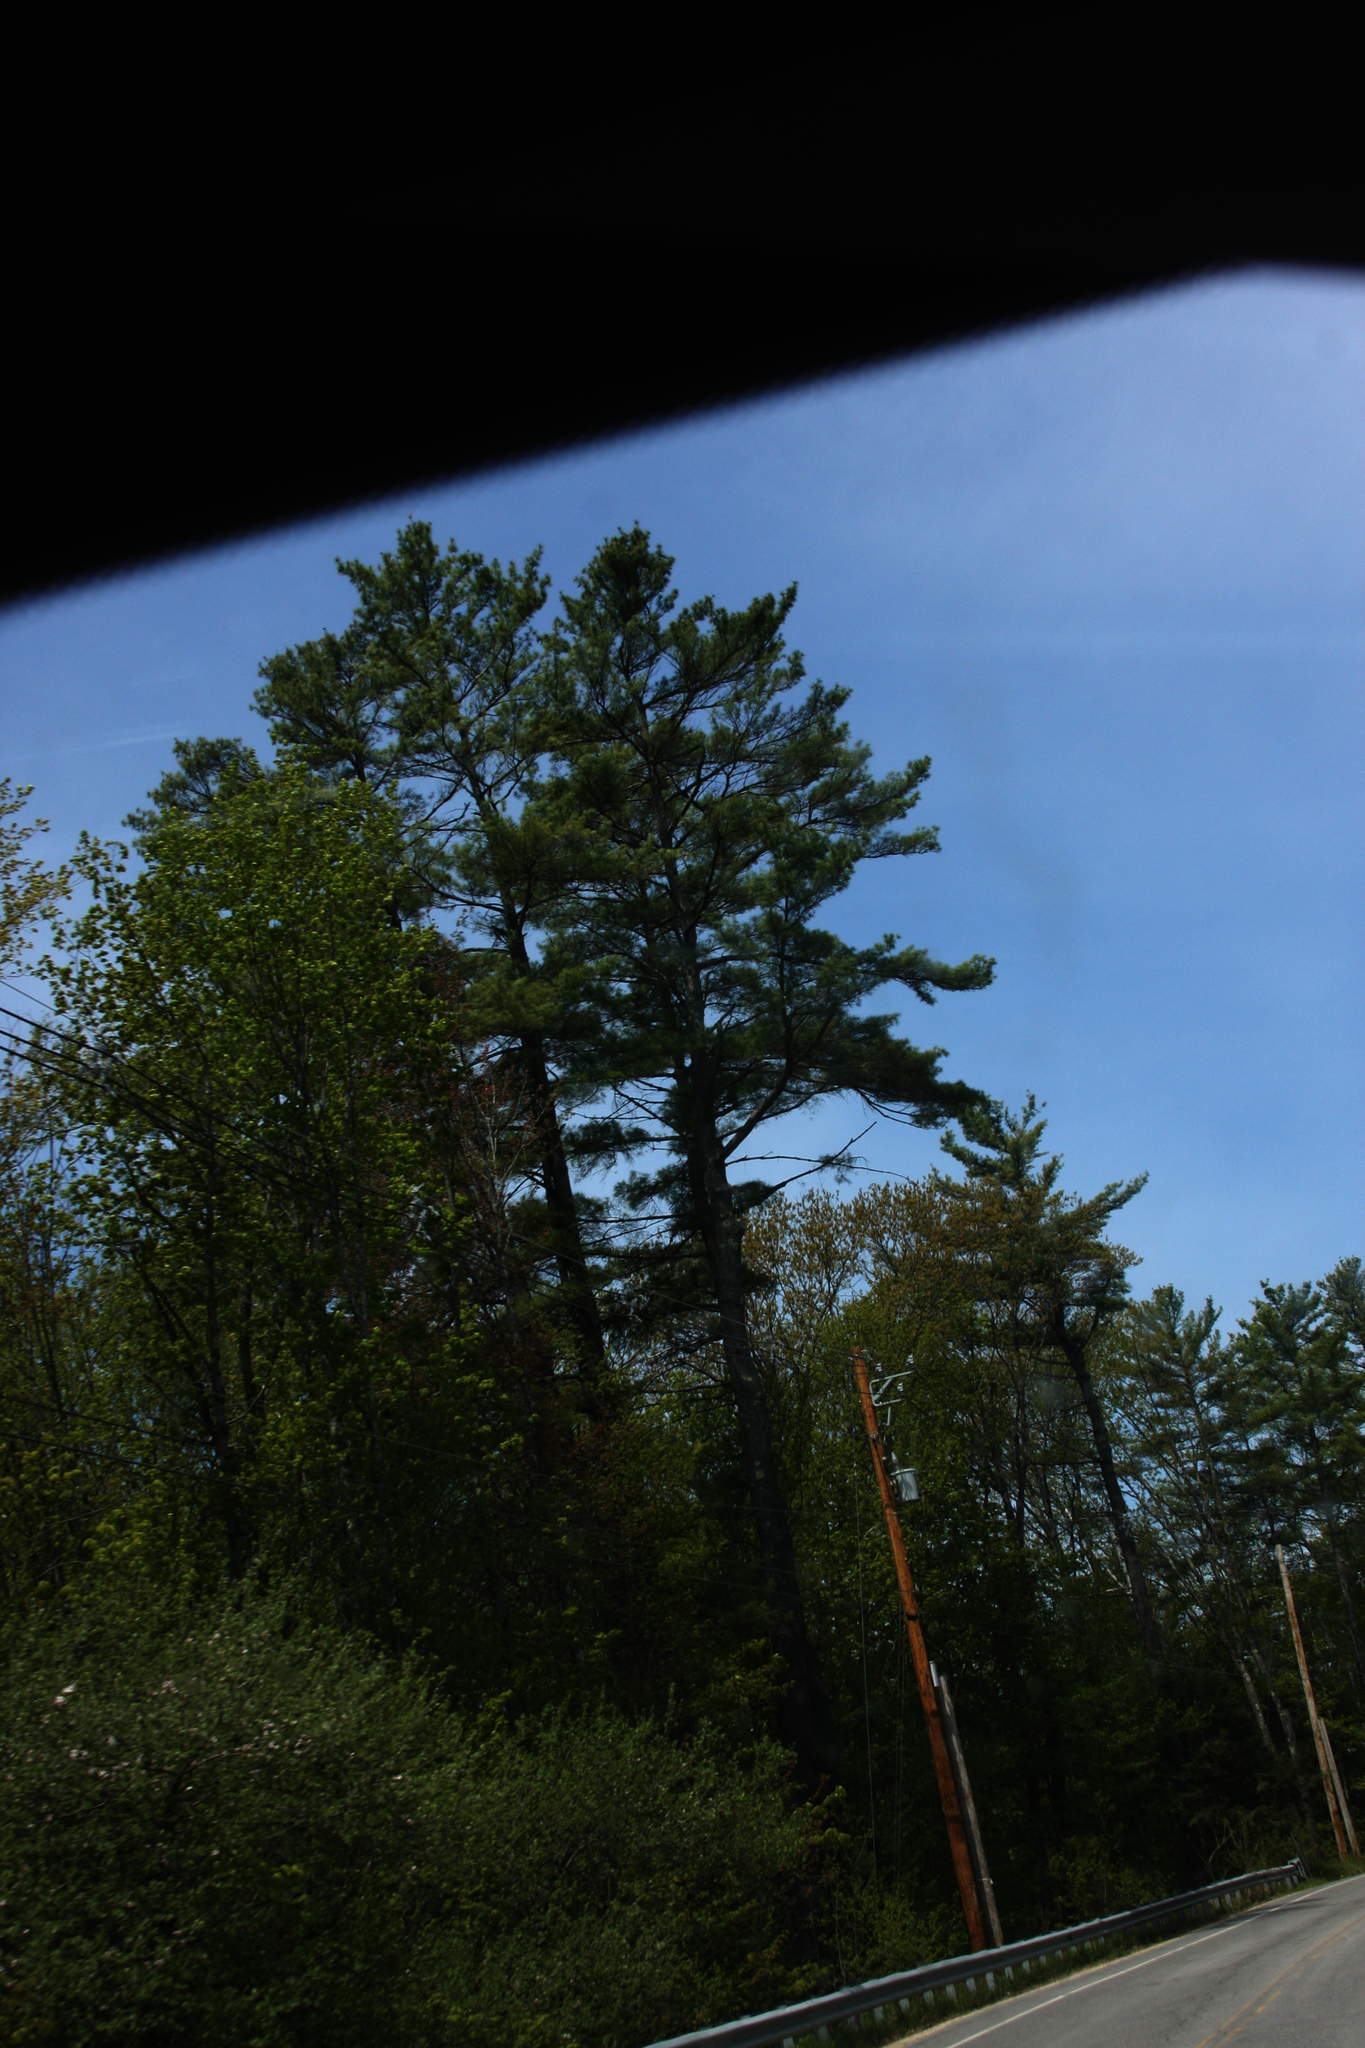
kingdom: Plantae
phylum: Tracheophyta
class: Pinopsida
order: Pinales
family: Pinaceae
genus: Pinus
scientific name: Pinus strobus
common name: Weymouth pine
